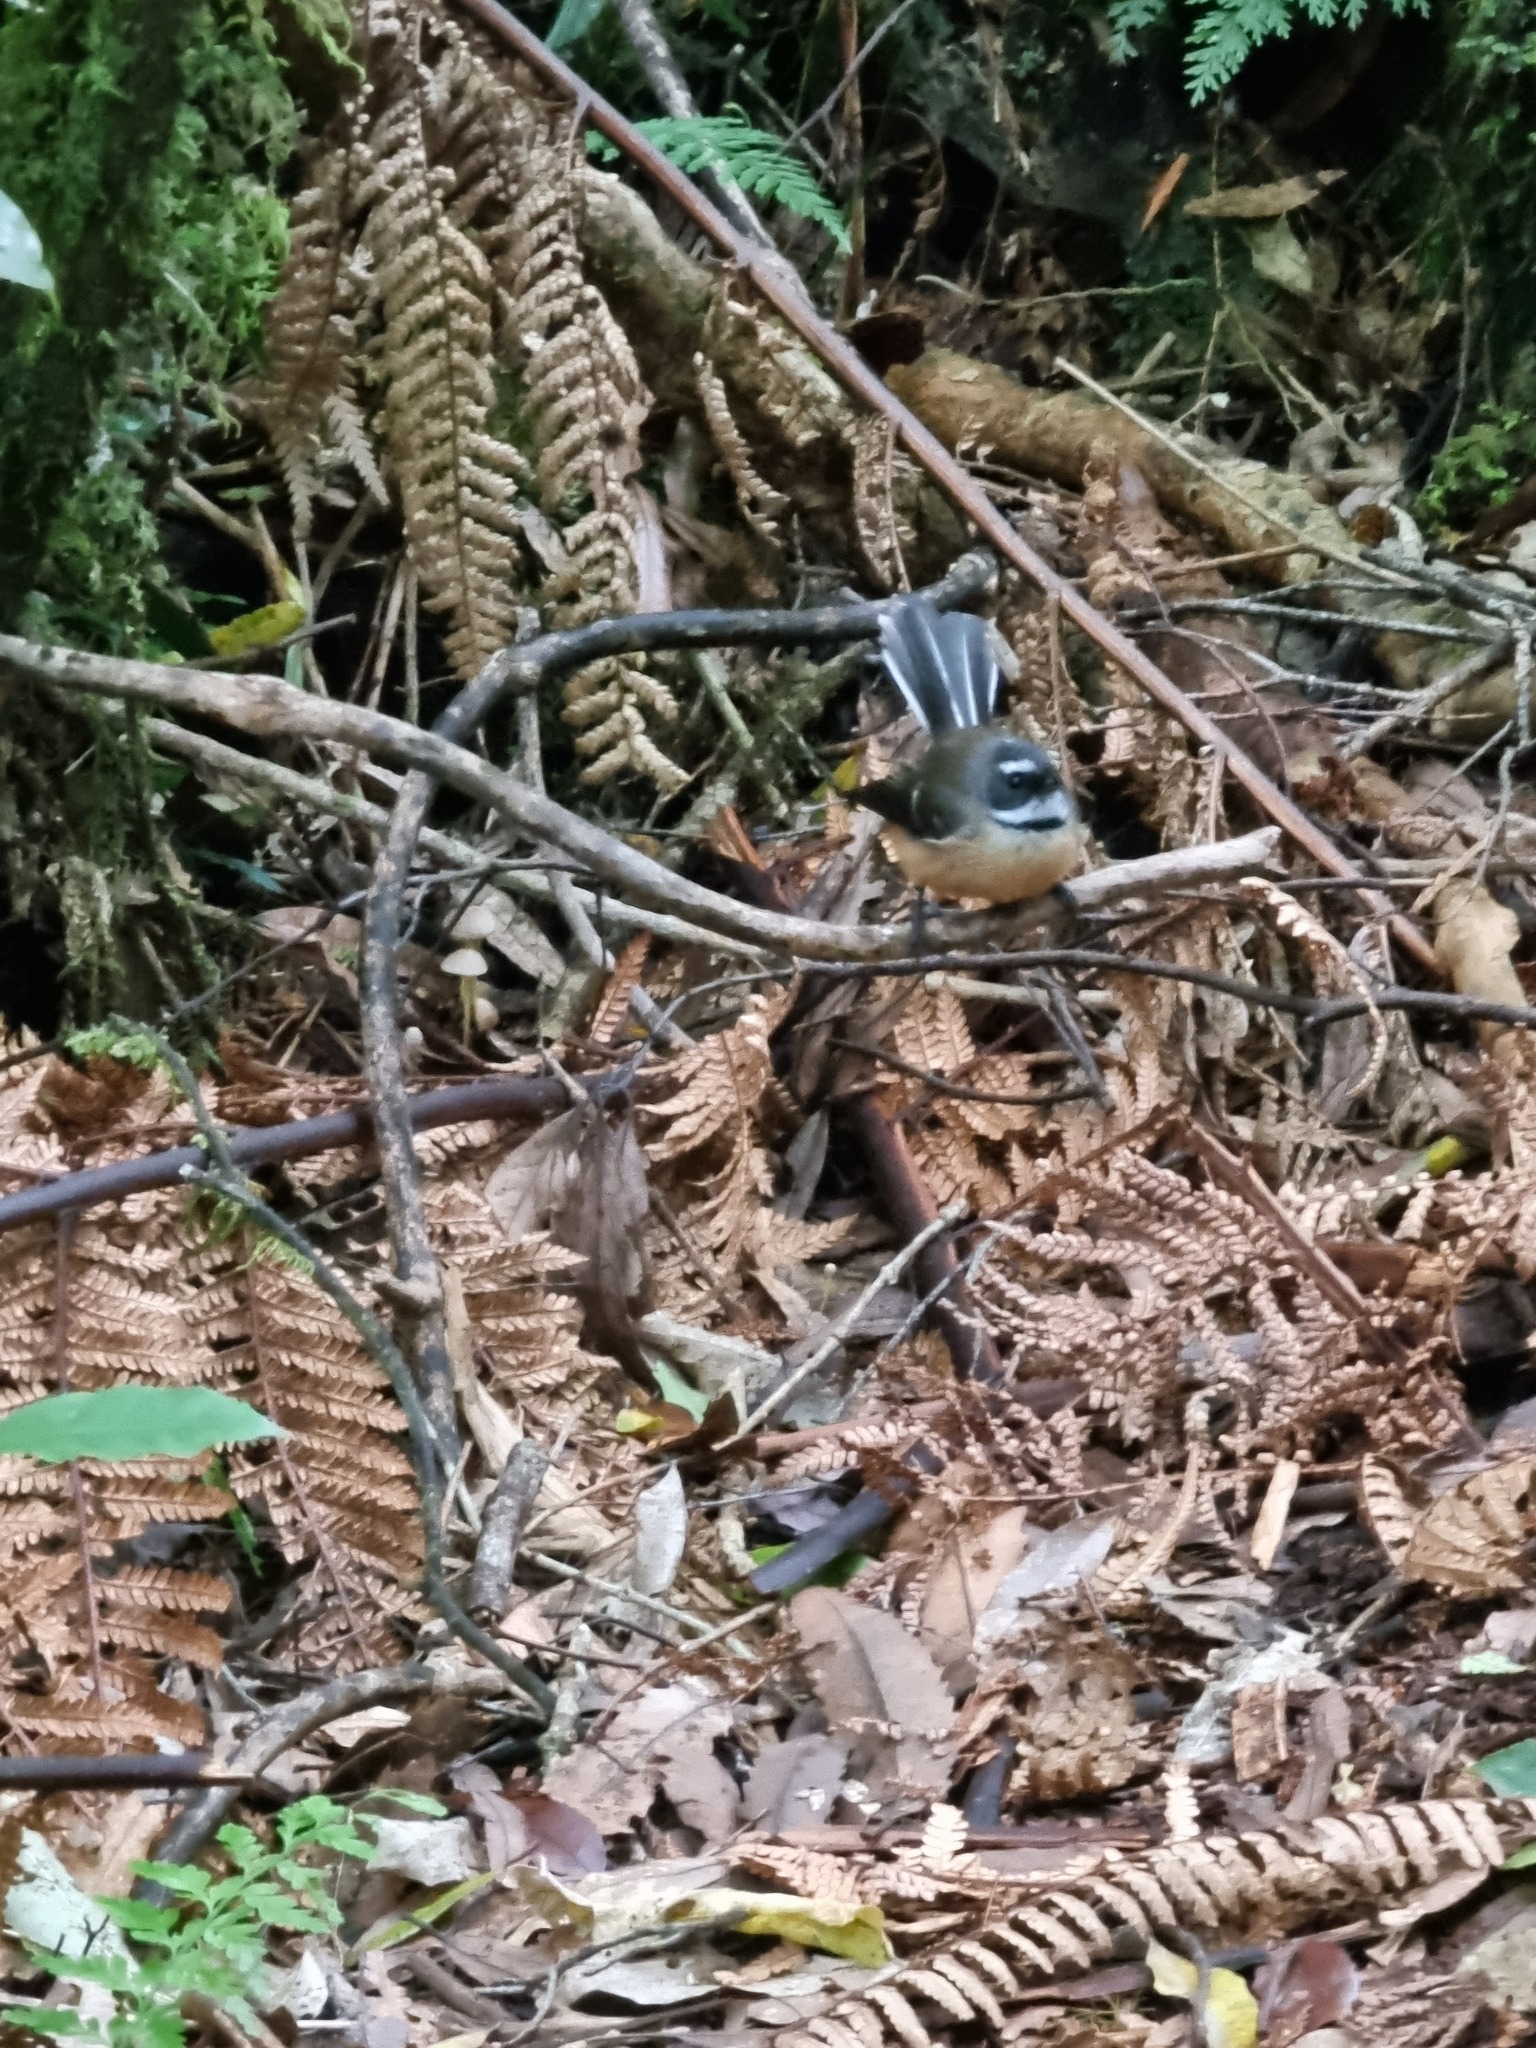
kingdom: Animalia
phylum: Chordata
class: Aves
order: Passeriformes
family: Rhipiduridae
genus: Rhipidura
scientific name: Rhipidura fuliginosa
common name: New zealand fantail
